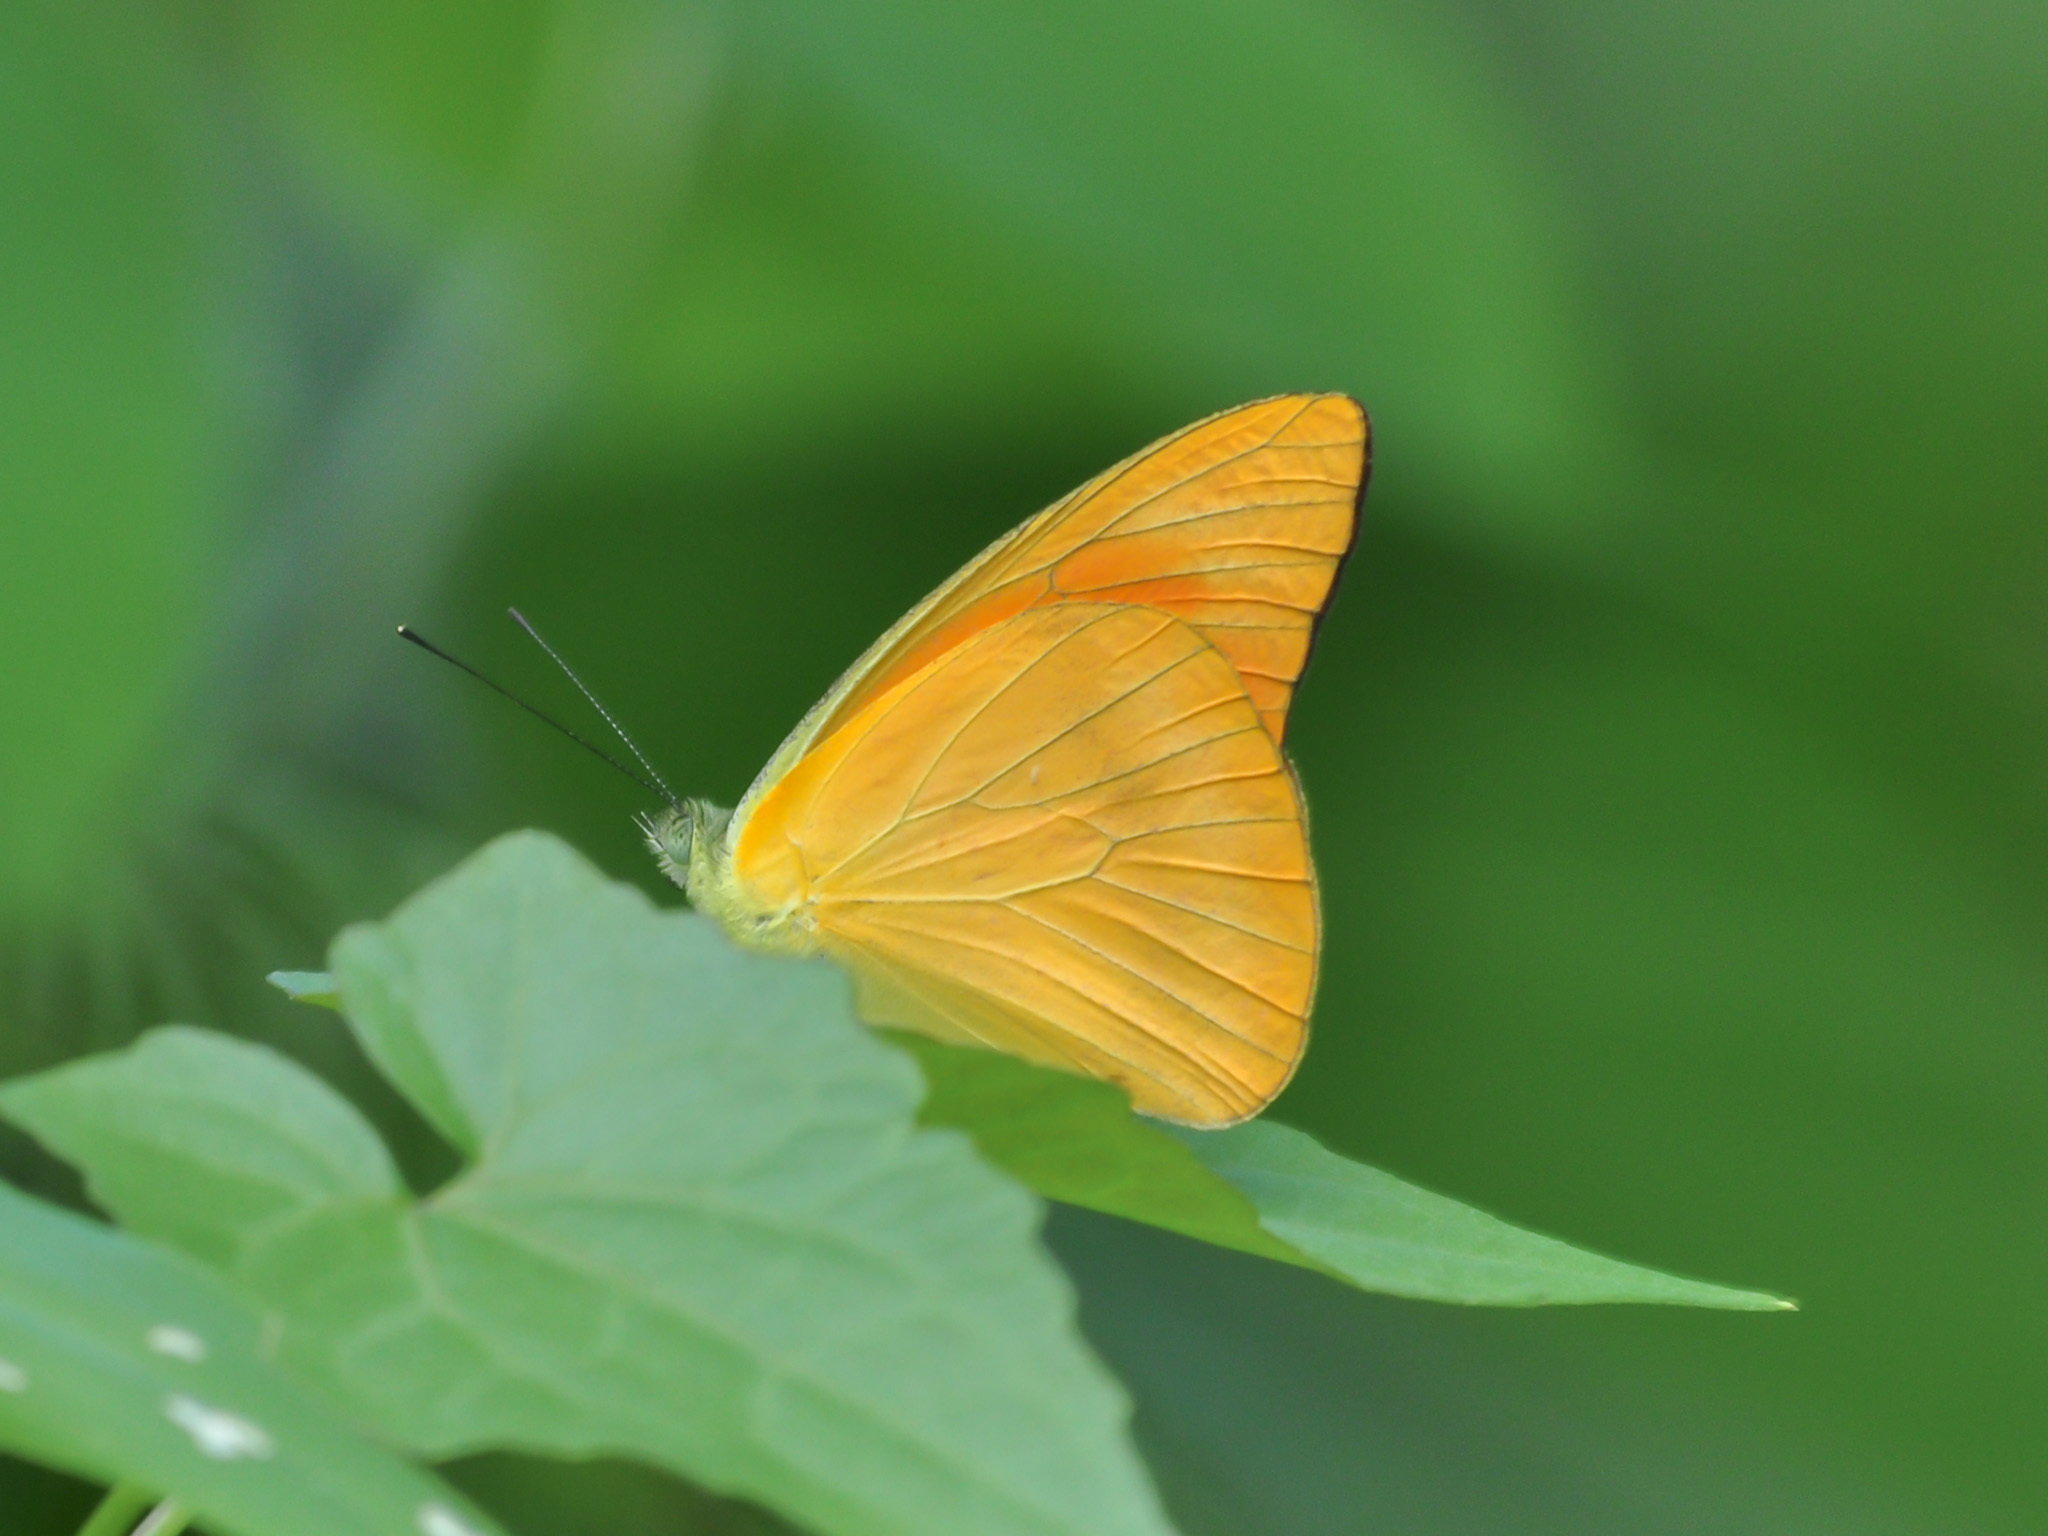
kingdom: Animalia
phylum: Arthropoda
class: Insecta
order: Lepidoptera
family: Pieridae
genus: Appias
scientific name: Appias nero
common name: Orange albatross
